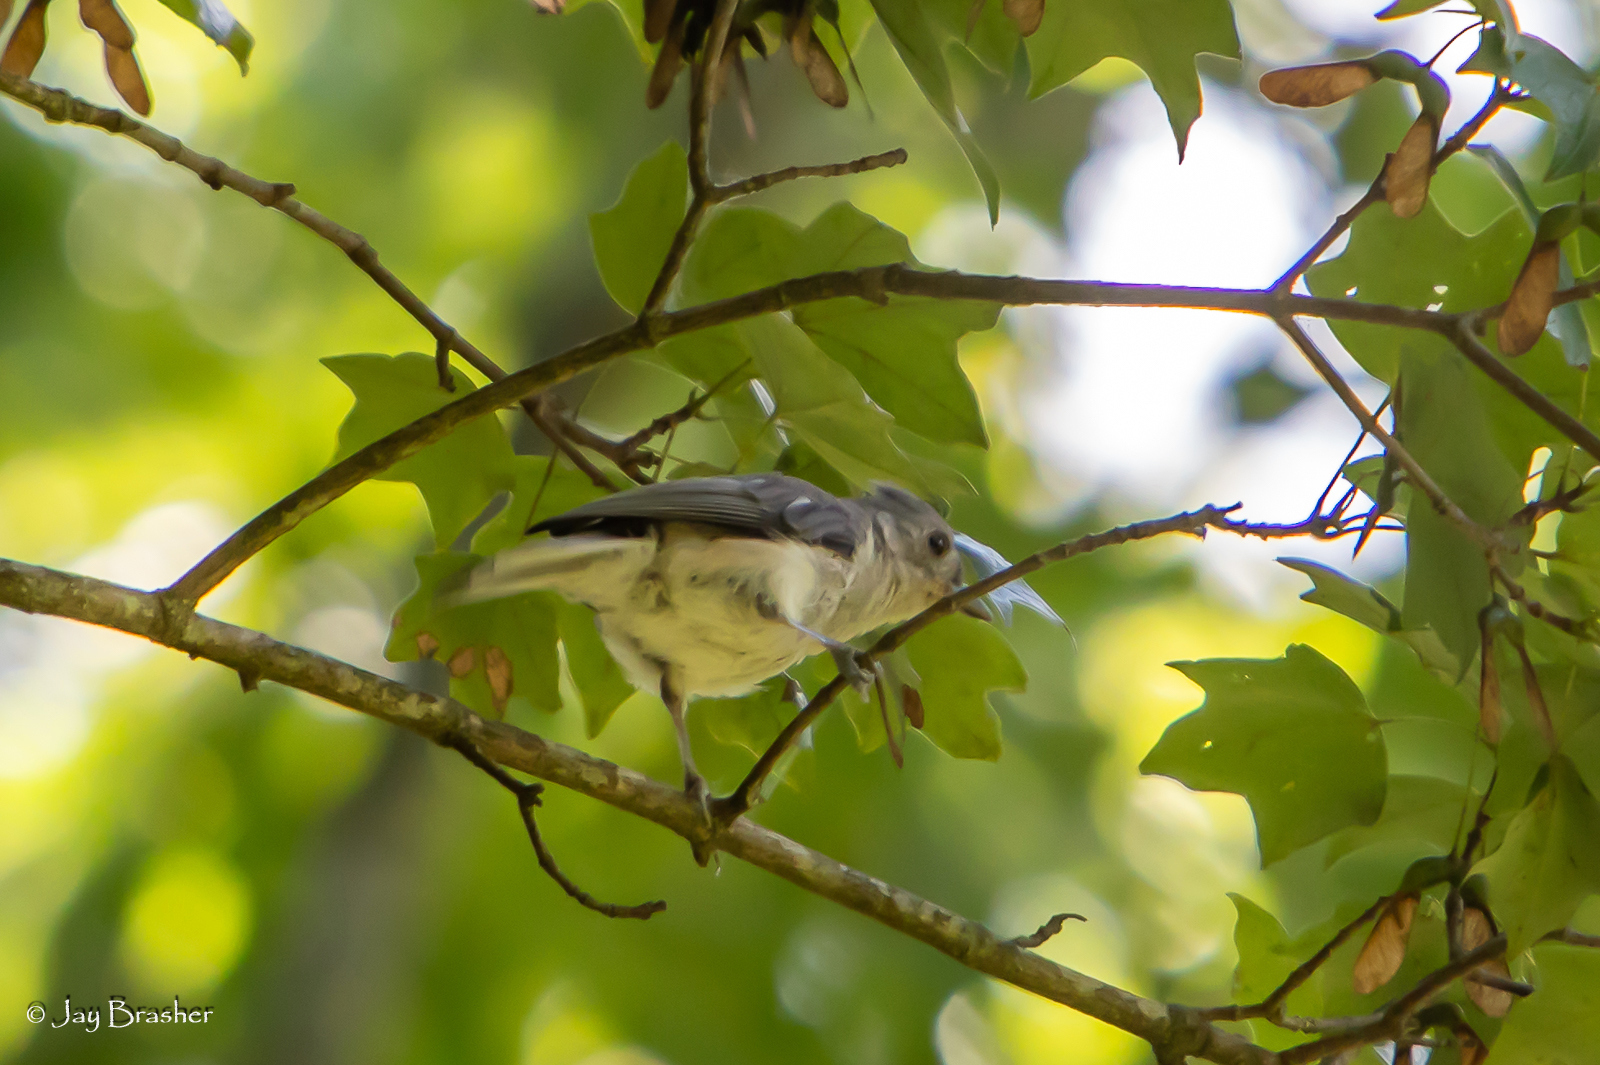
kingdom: Animalia
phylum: Chordata
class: Aves
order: Passeriformes
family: Paridae
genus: Baeolophus
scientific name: Baeolophus bicolor
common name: Tufted titmouse
